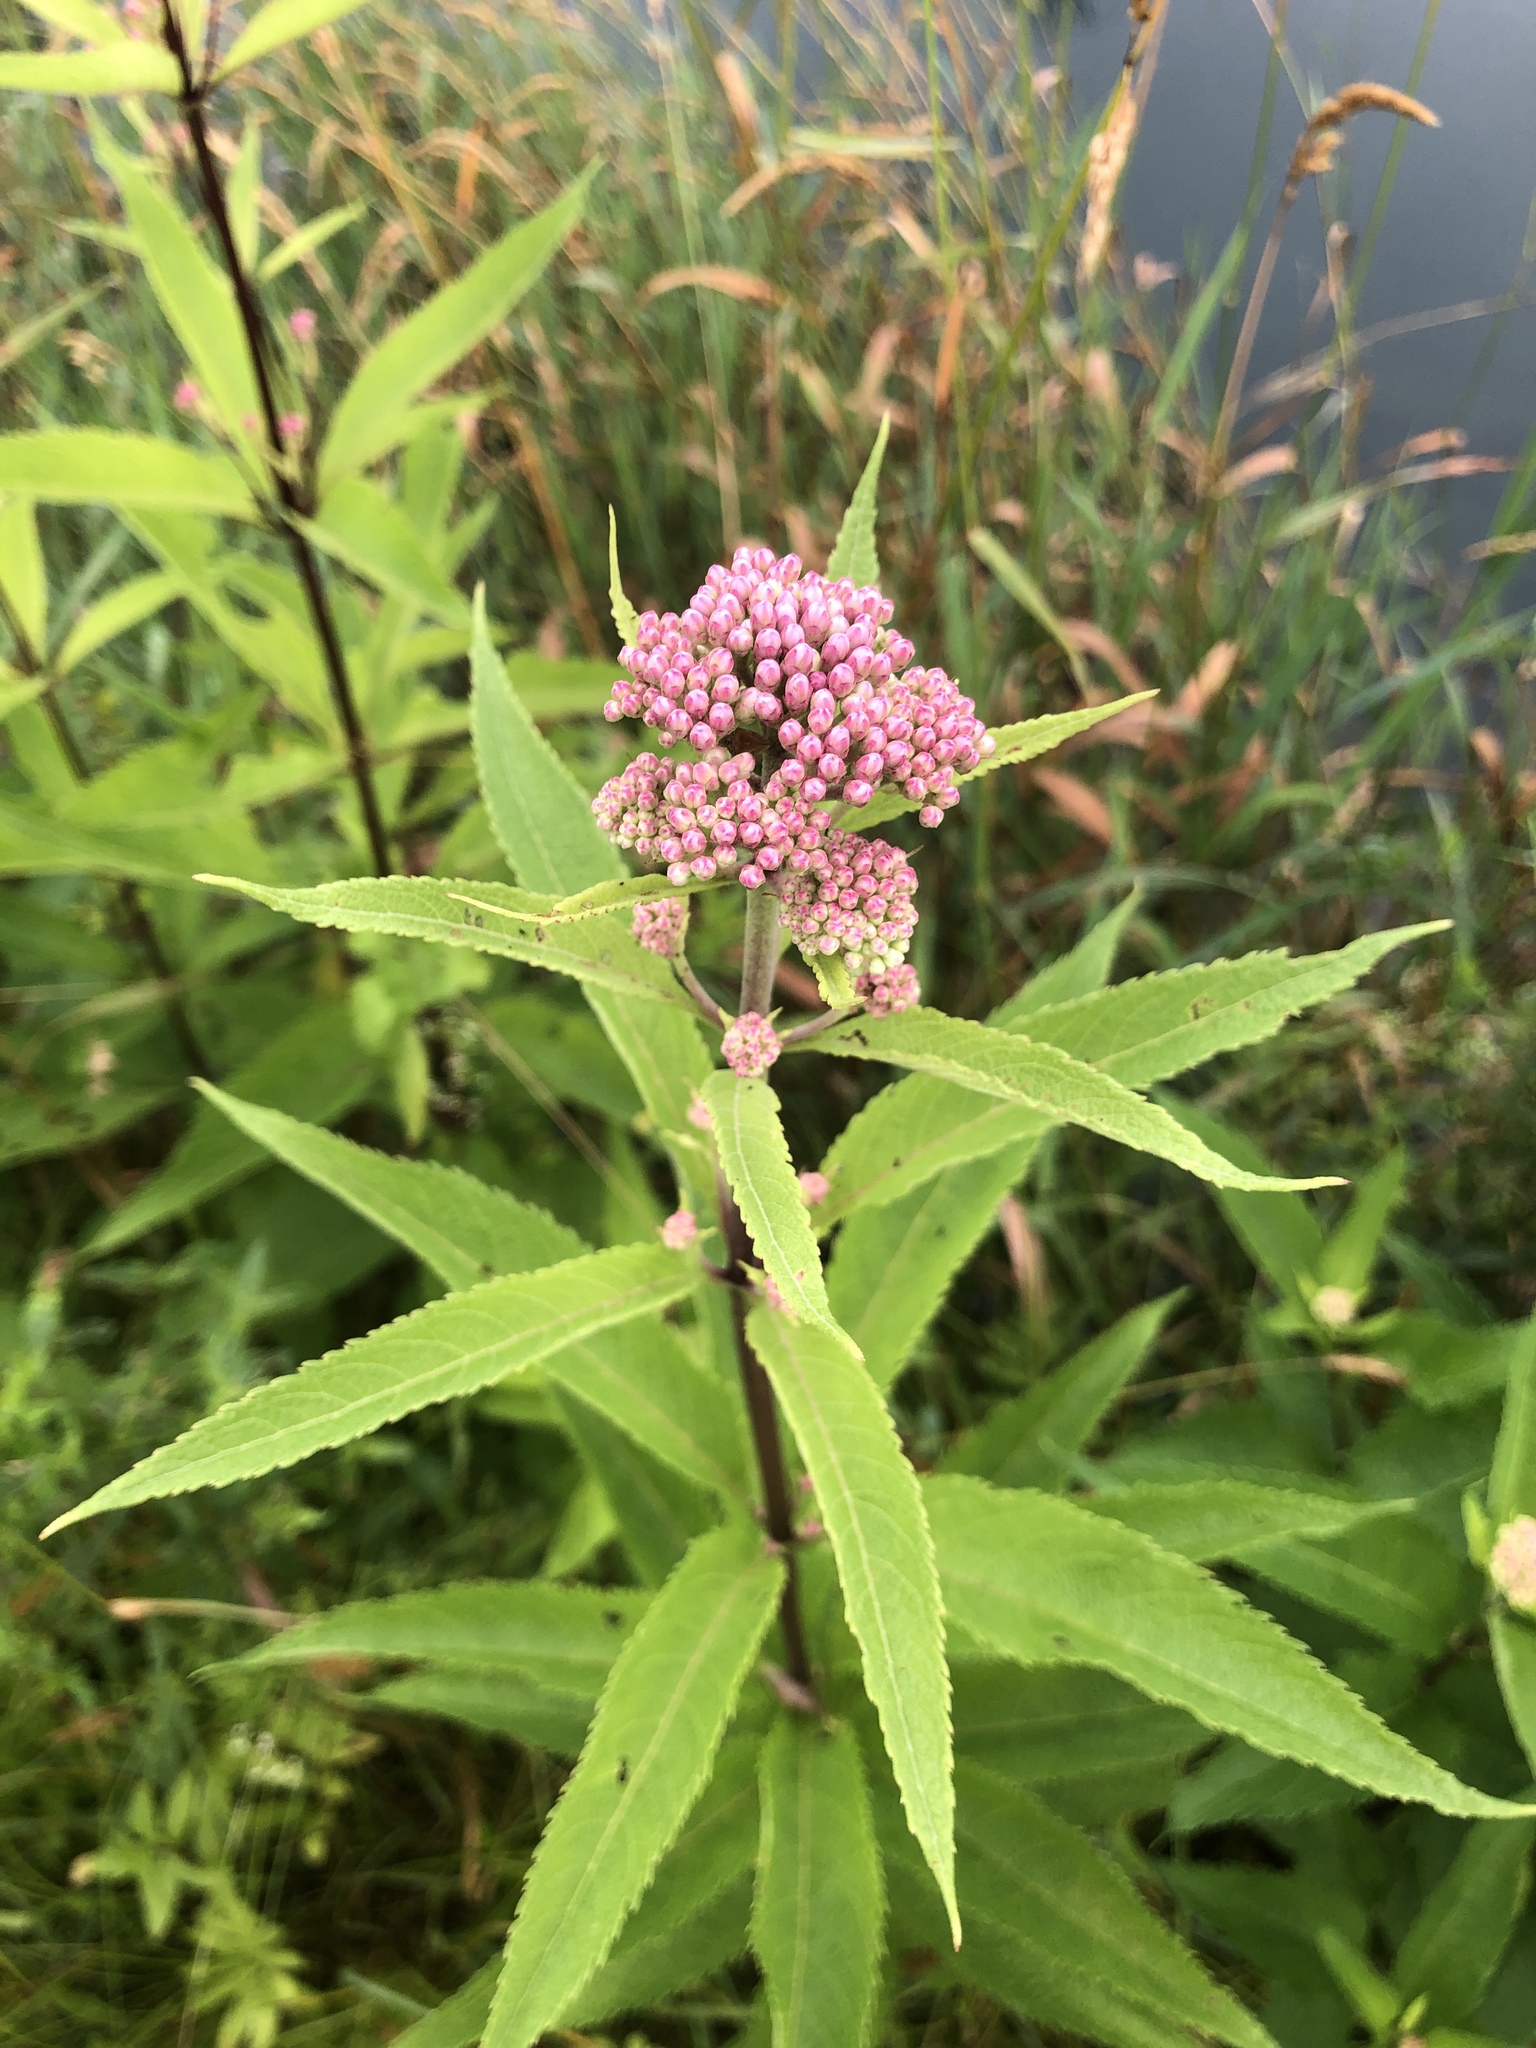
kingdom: Plantae
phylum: Tracheophyta
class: Magnoliopsida
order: Asterales
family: Asteraceae
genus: Eutrochium
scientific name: Eutrochium maculatum
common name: Spotted joe pye weed
